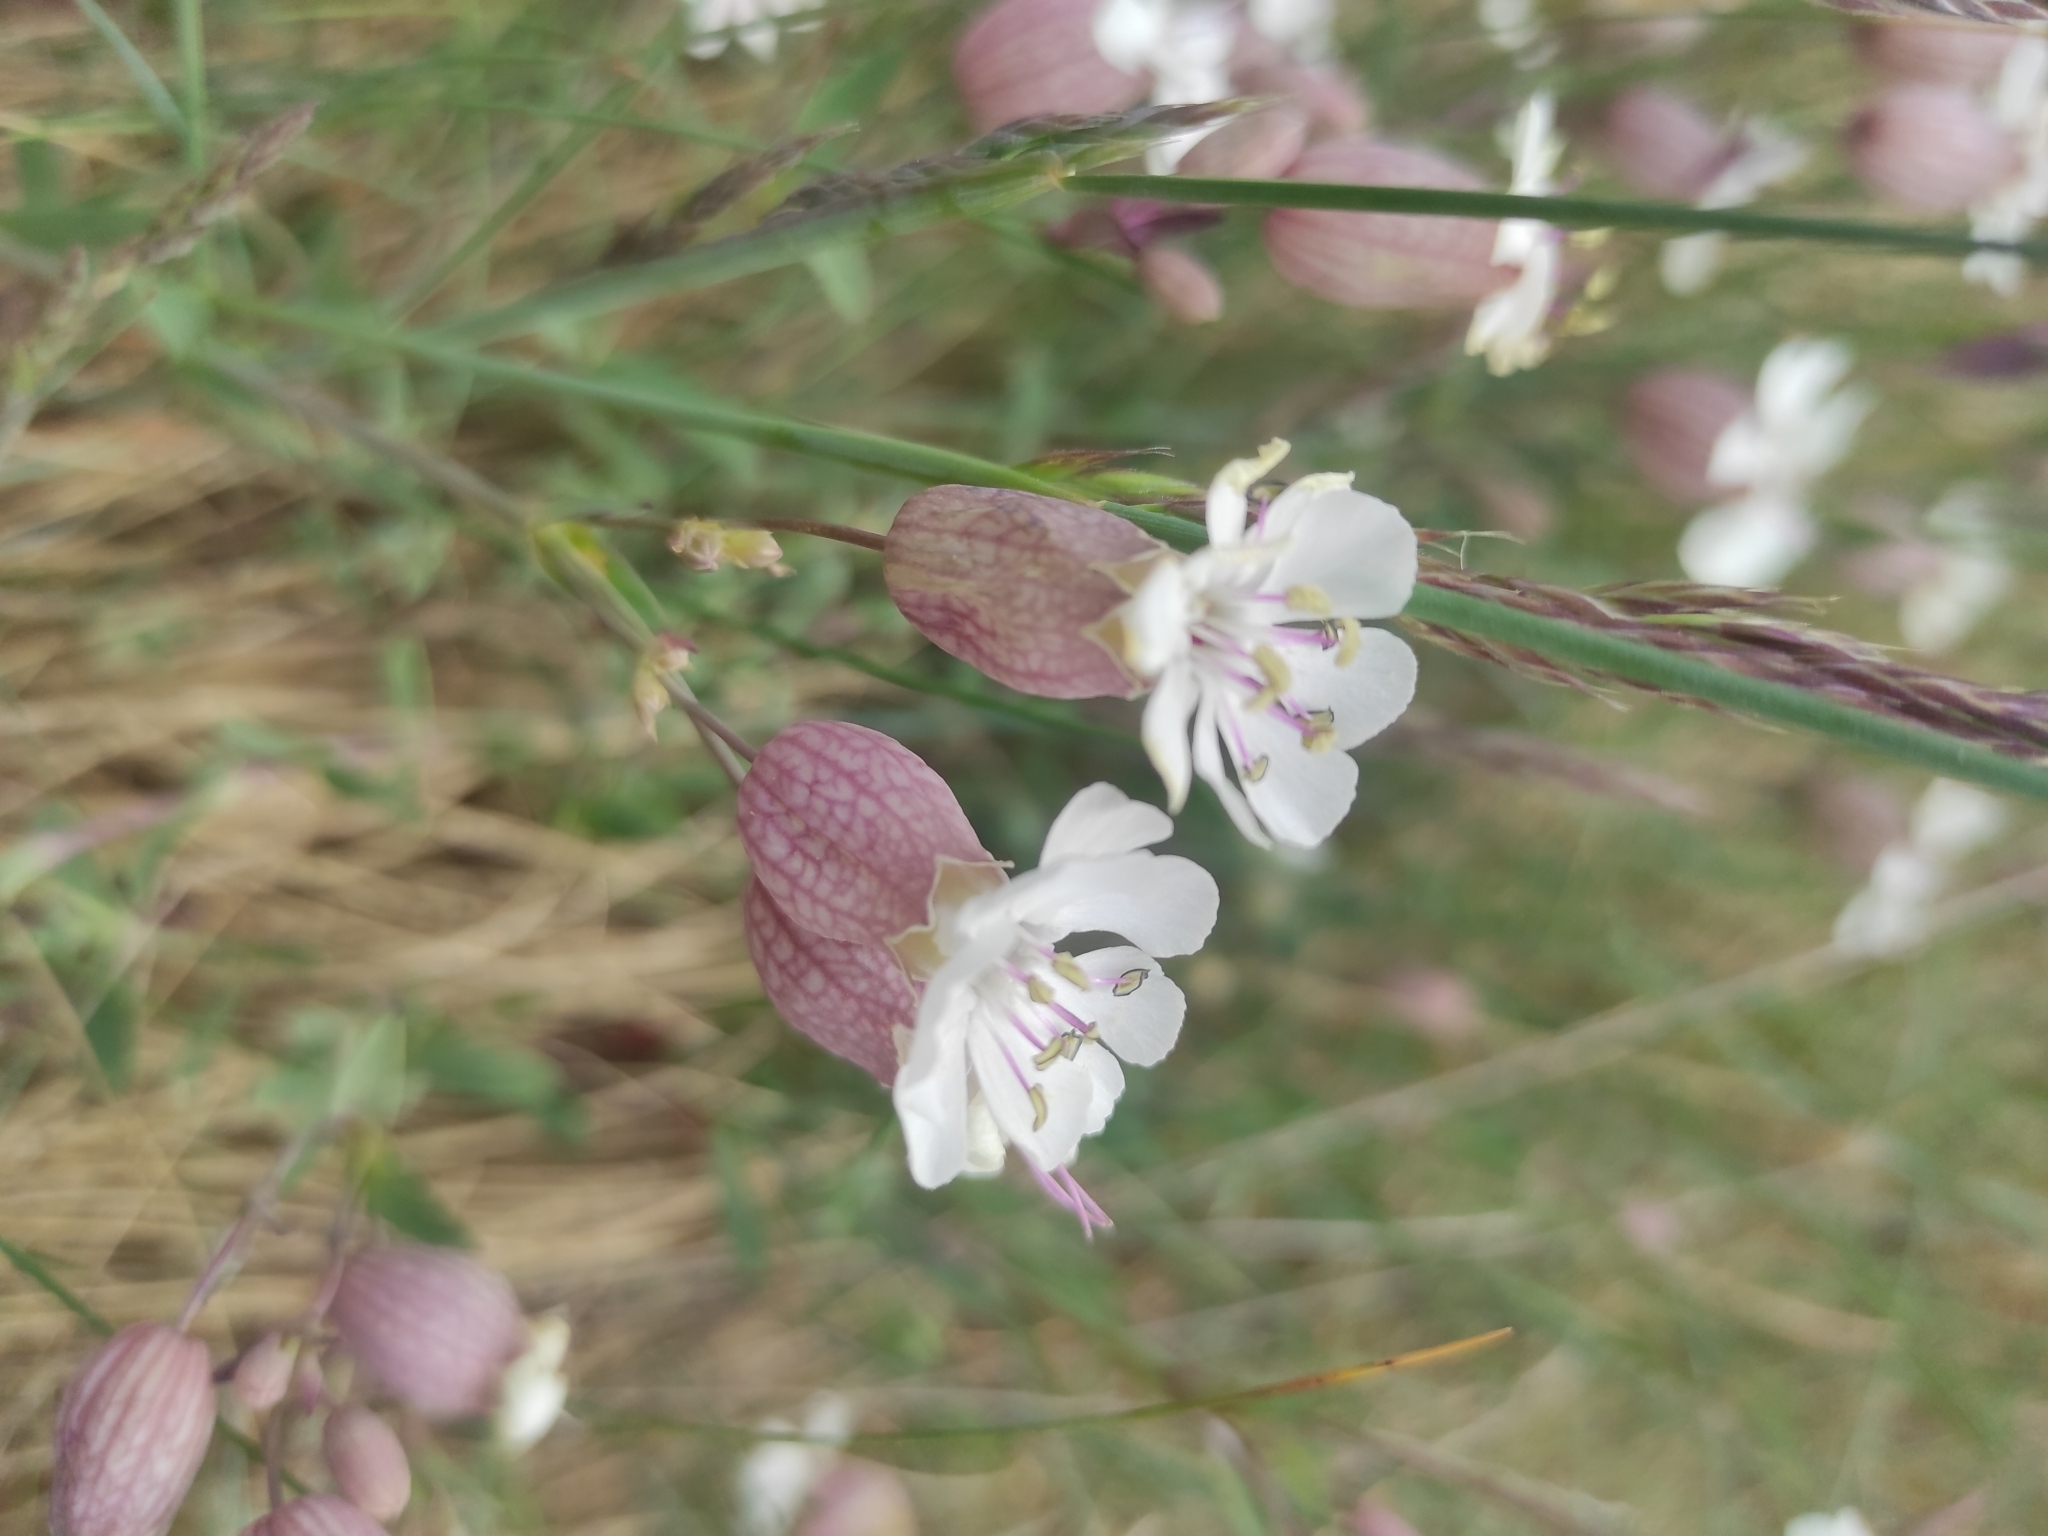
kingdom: Plantae
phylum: Tracheophyta
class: Magnoliopsida
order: Caryophyllales
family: Caryophyllaceae
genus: Silene
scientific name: Silene vulgaris
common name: Bladder campion
